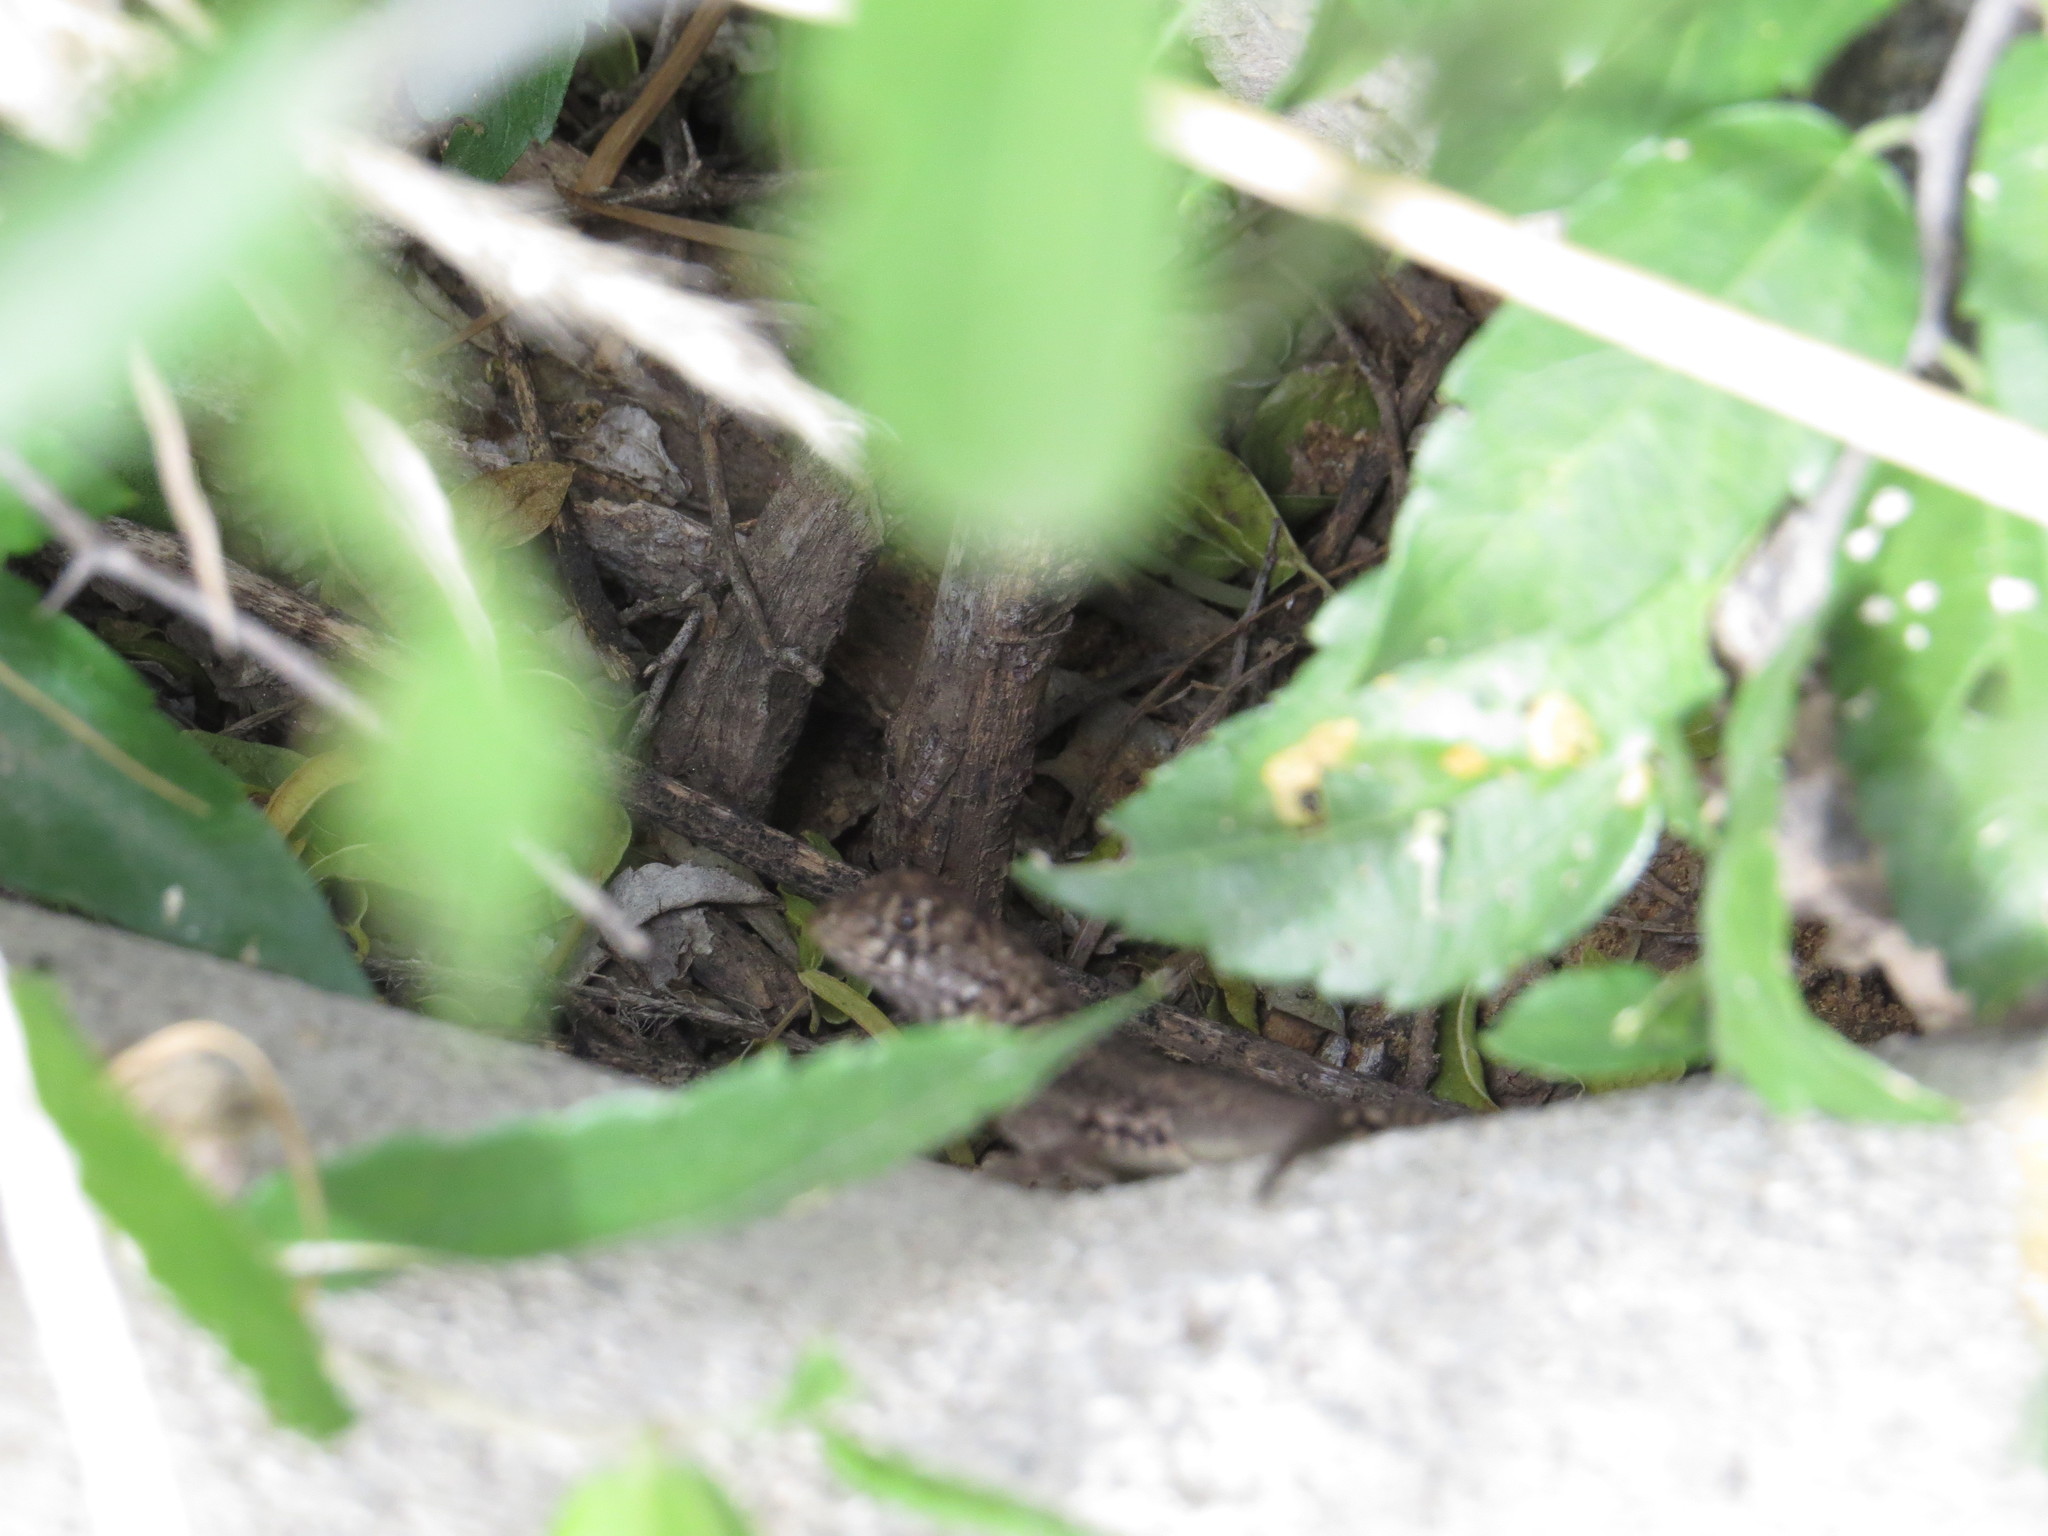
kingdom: Animalia
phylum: Chordata
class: Squamata
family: Tropiduridae
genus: Tropidurus
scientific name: Tropidurus etheridgei
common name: Etheridge's lava lizard
